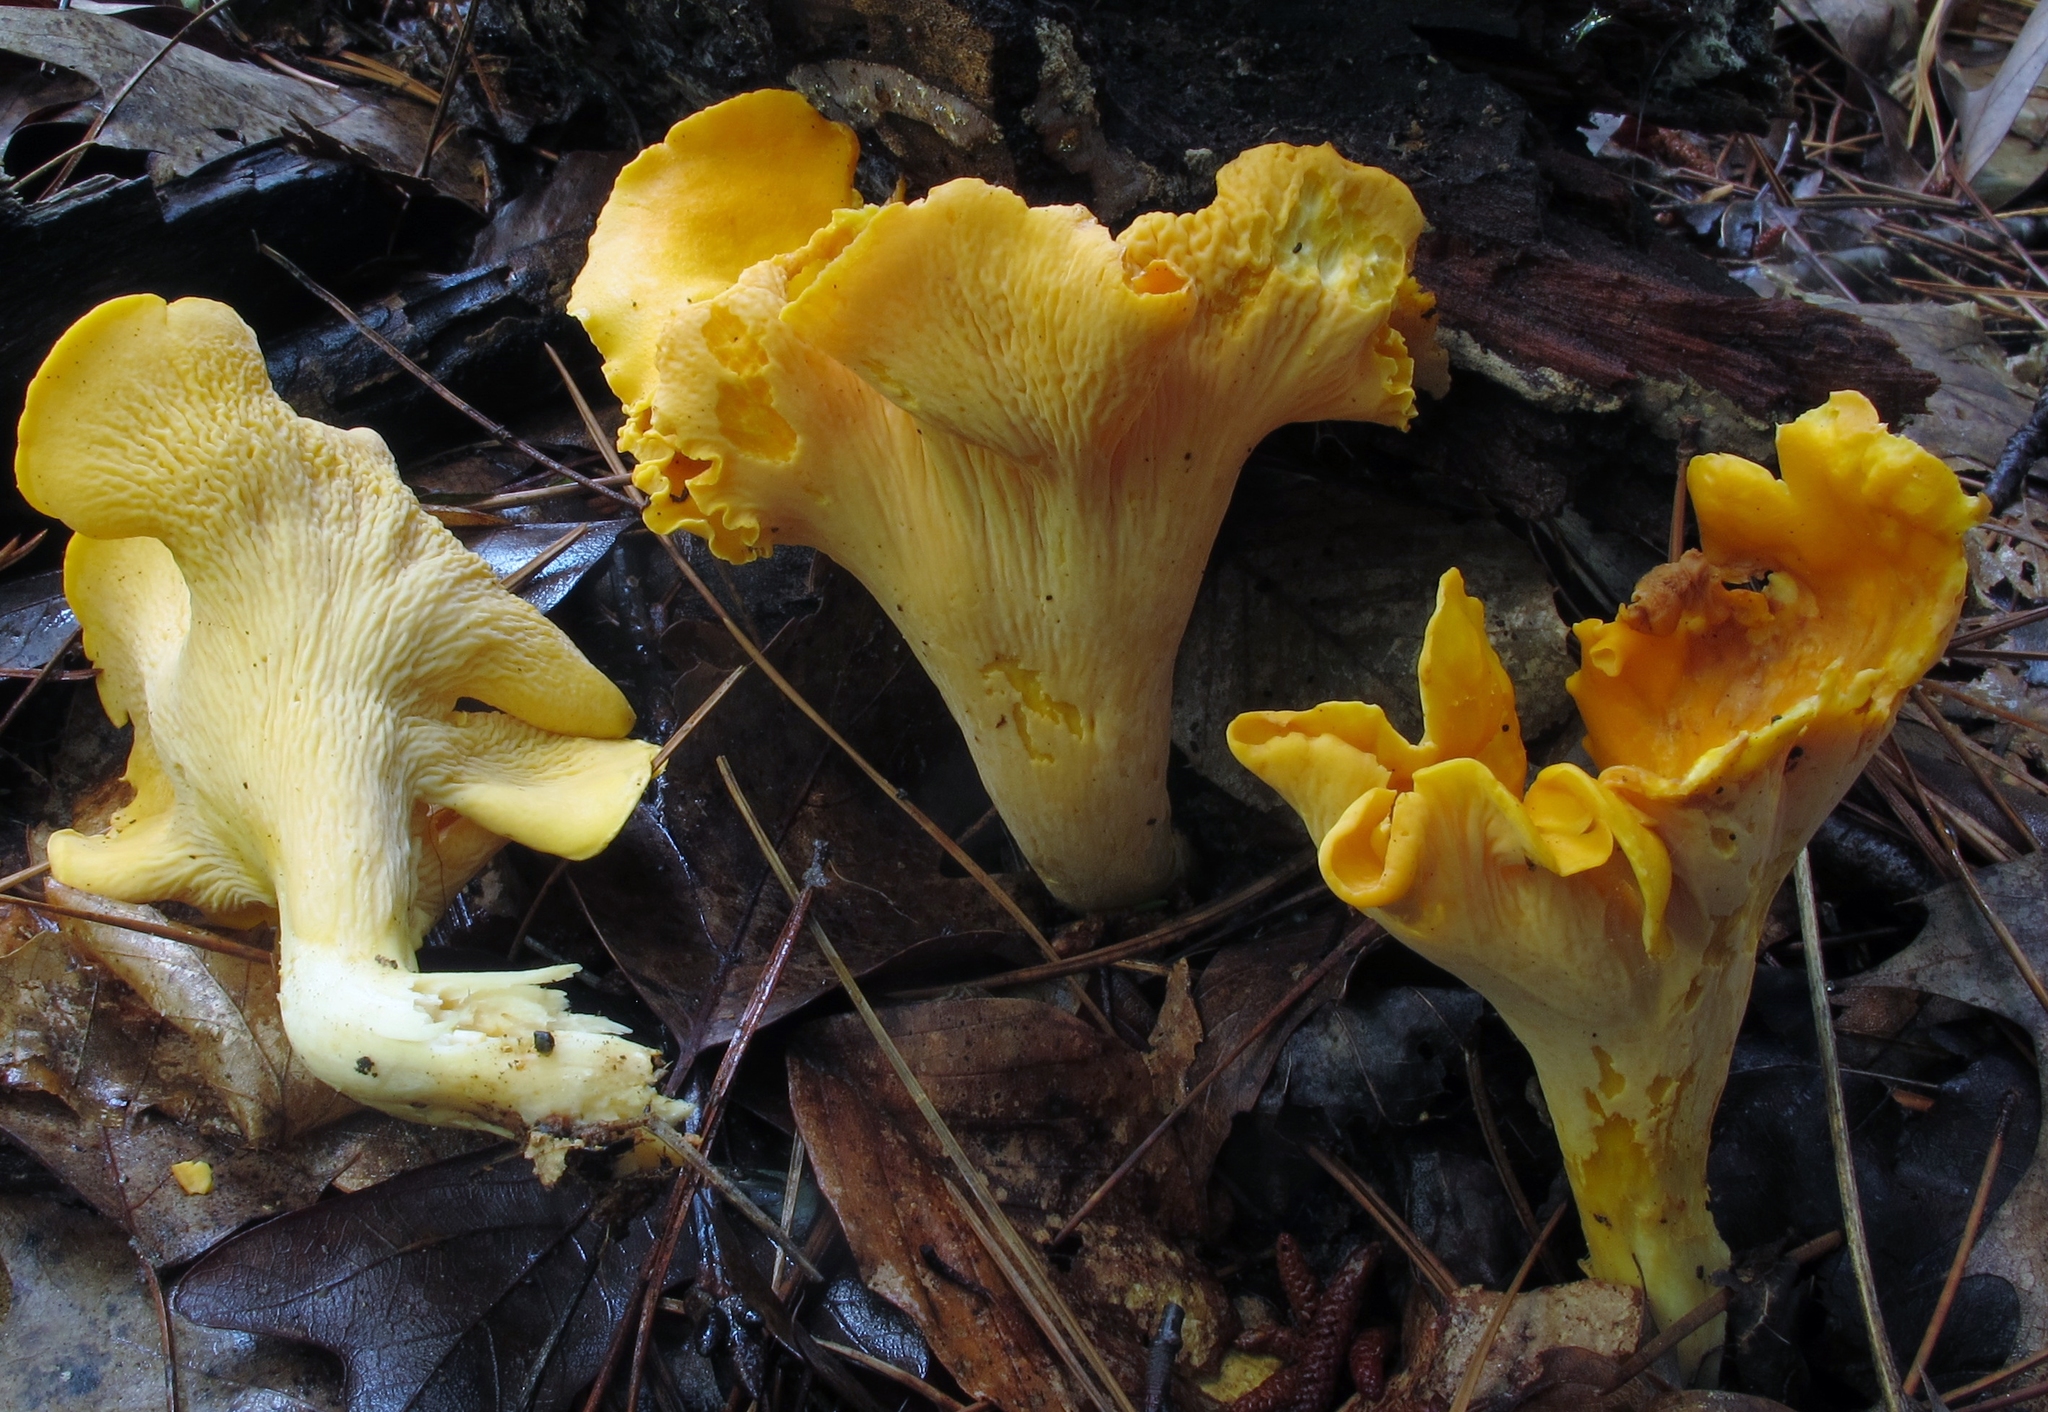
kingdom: Fungi
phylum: Basidiomycota
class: Agaricomycetes
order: Cantharellales
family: Hydnaceae
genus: Cantharellus
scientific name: Cantharellus lateritius
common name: Smooth chanterelle
